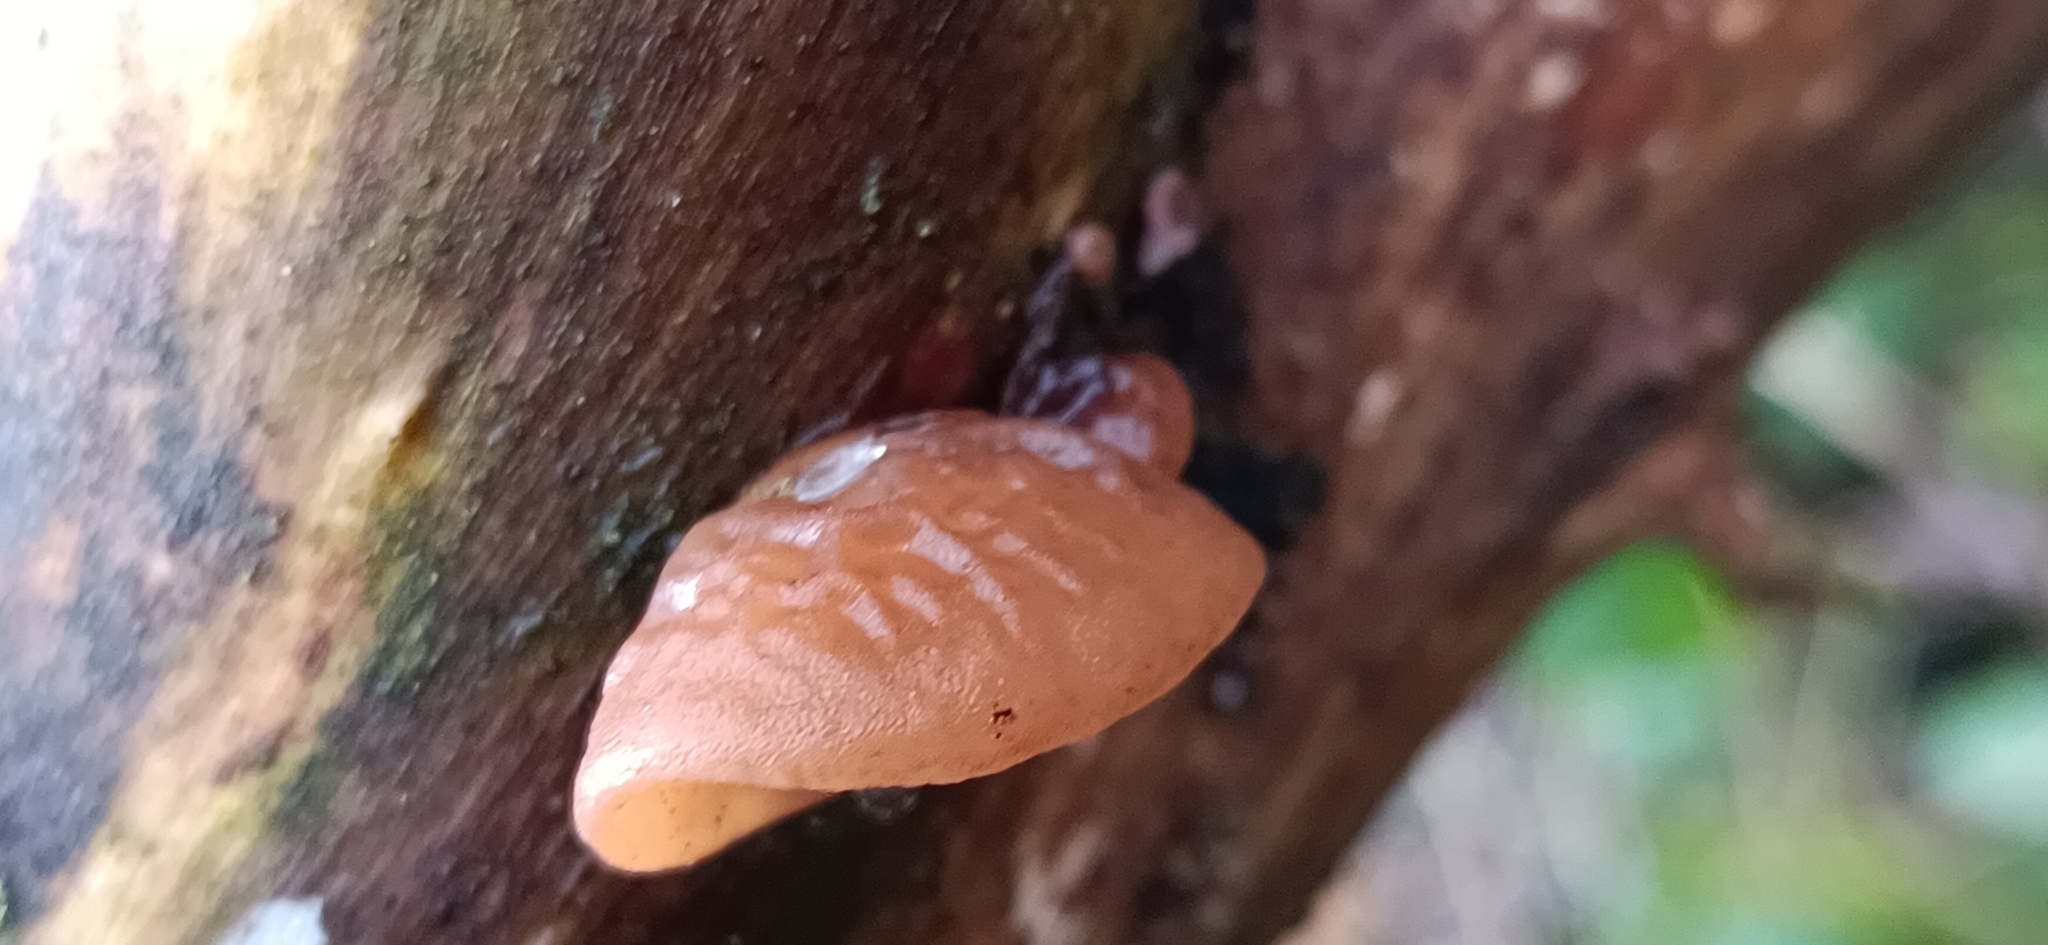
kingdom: Fungi
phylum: Basidiomycota
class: Agaricomycetes
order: Auriculariales
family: Auriculariaceae
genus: Auricularia
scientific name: Auricularia auricula-judae
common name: Jelly ear
